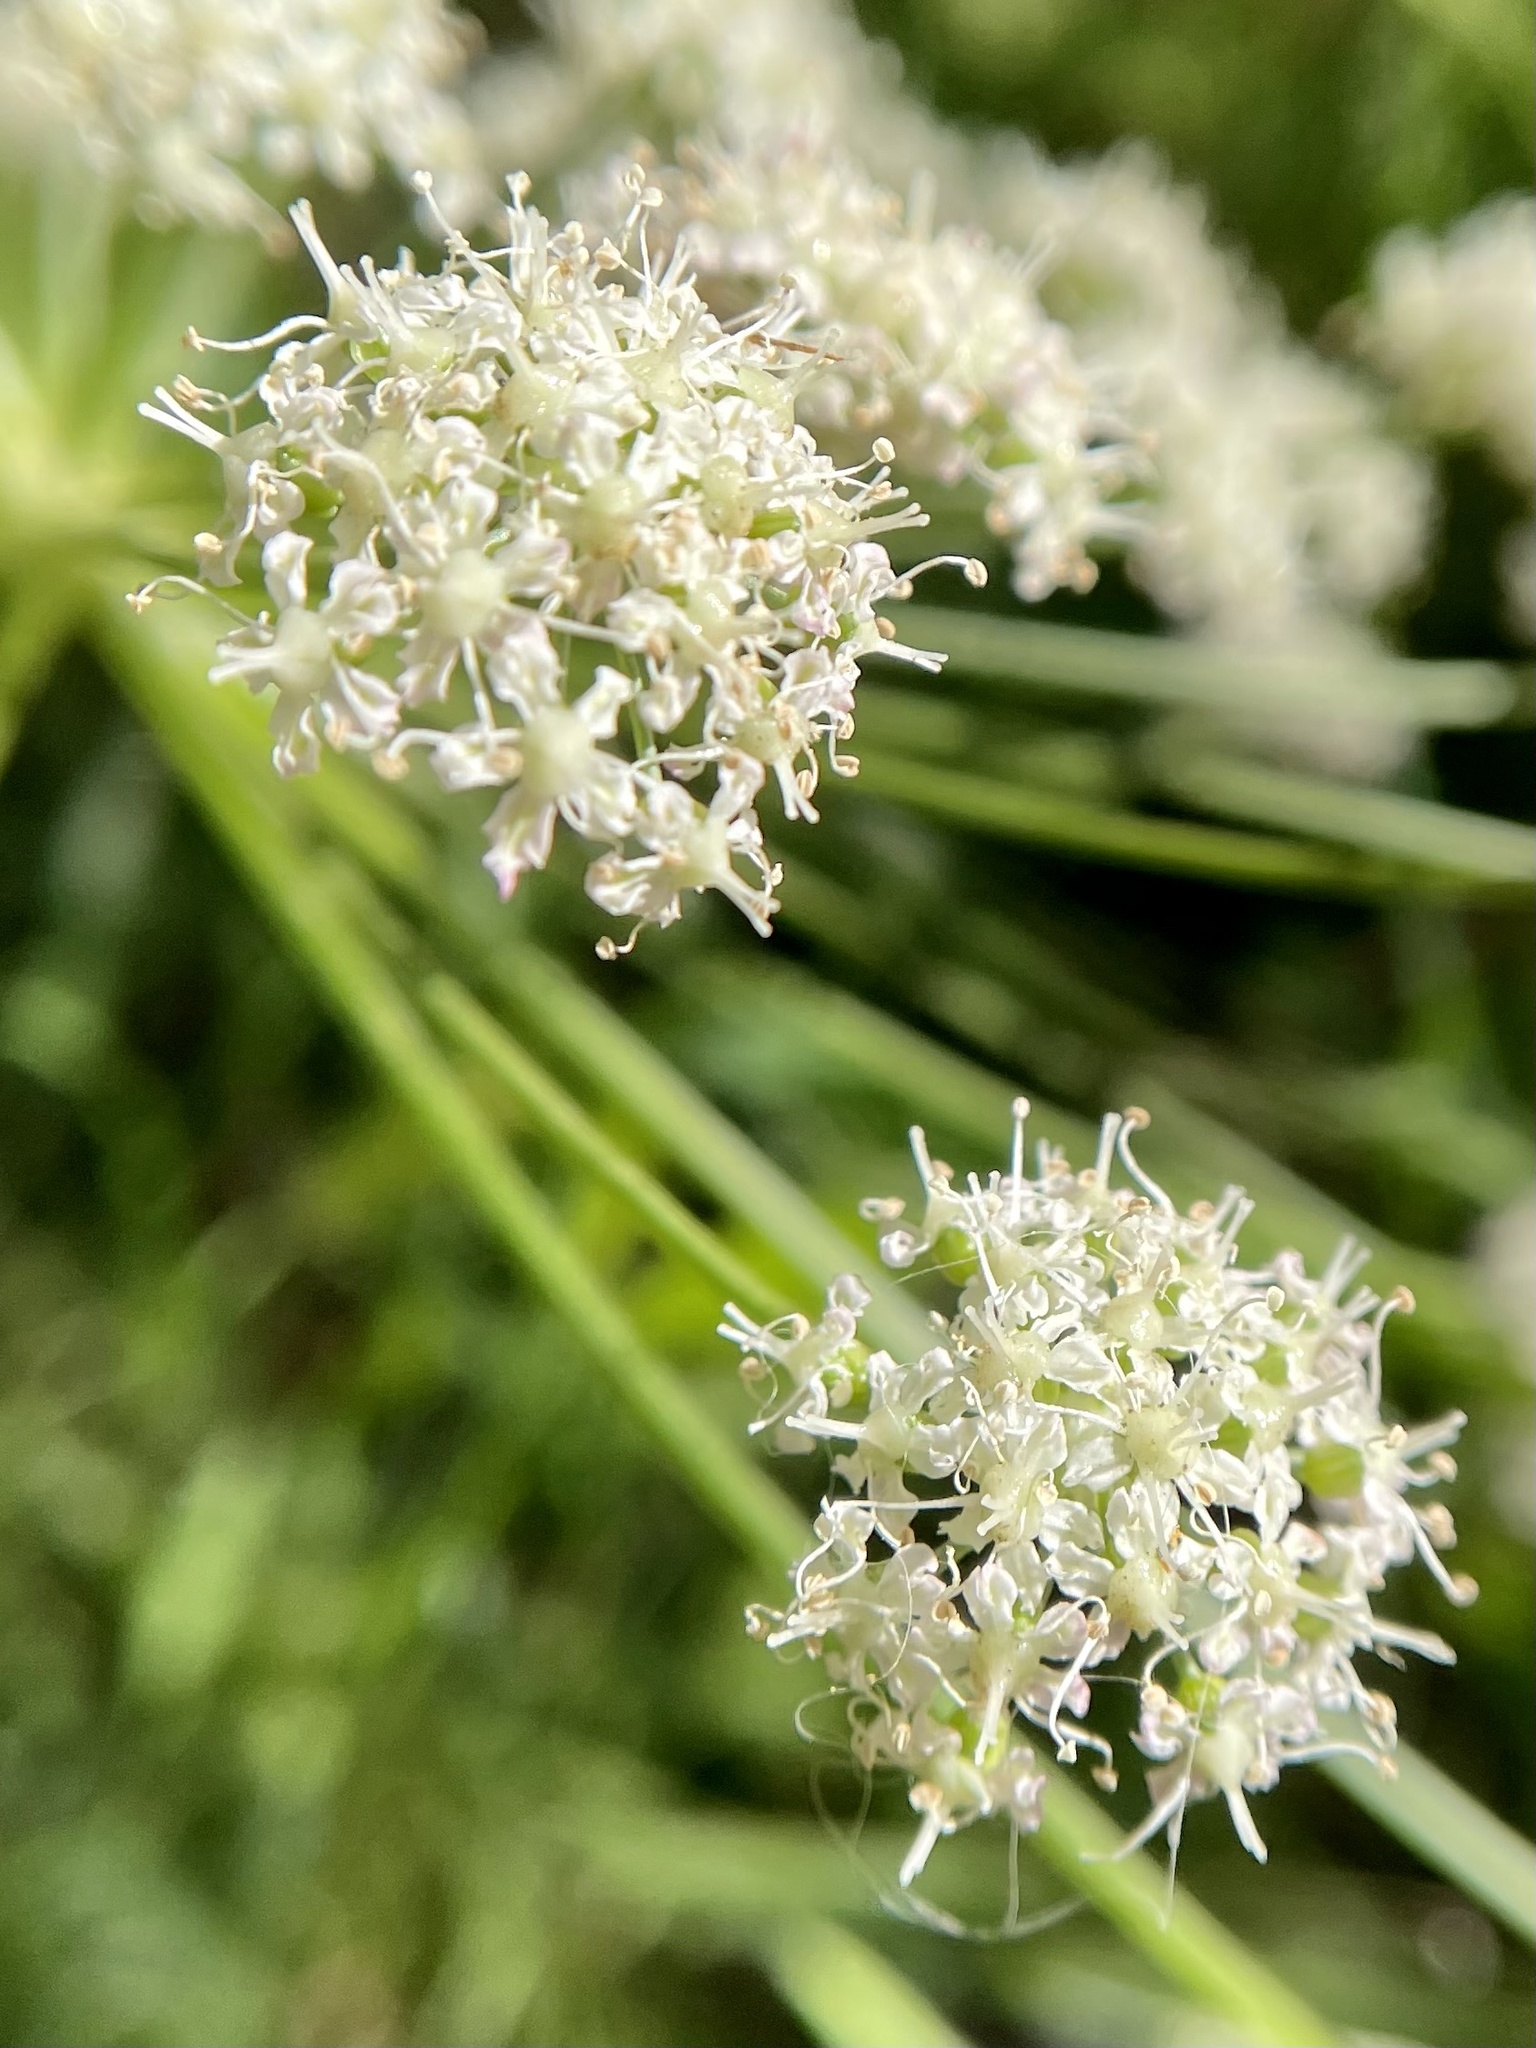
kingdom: Plantae
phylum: Tracheophyta
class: Magnoliopsida
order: Apiales
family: Apiaceae
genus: Angelica
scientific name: Angelica californica
